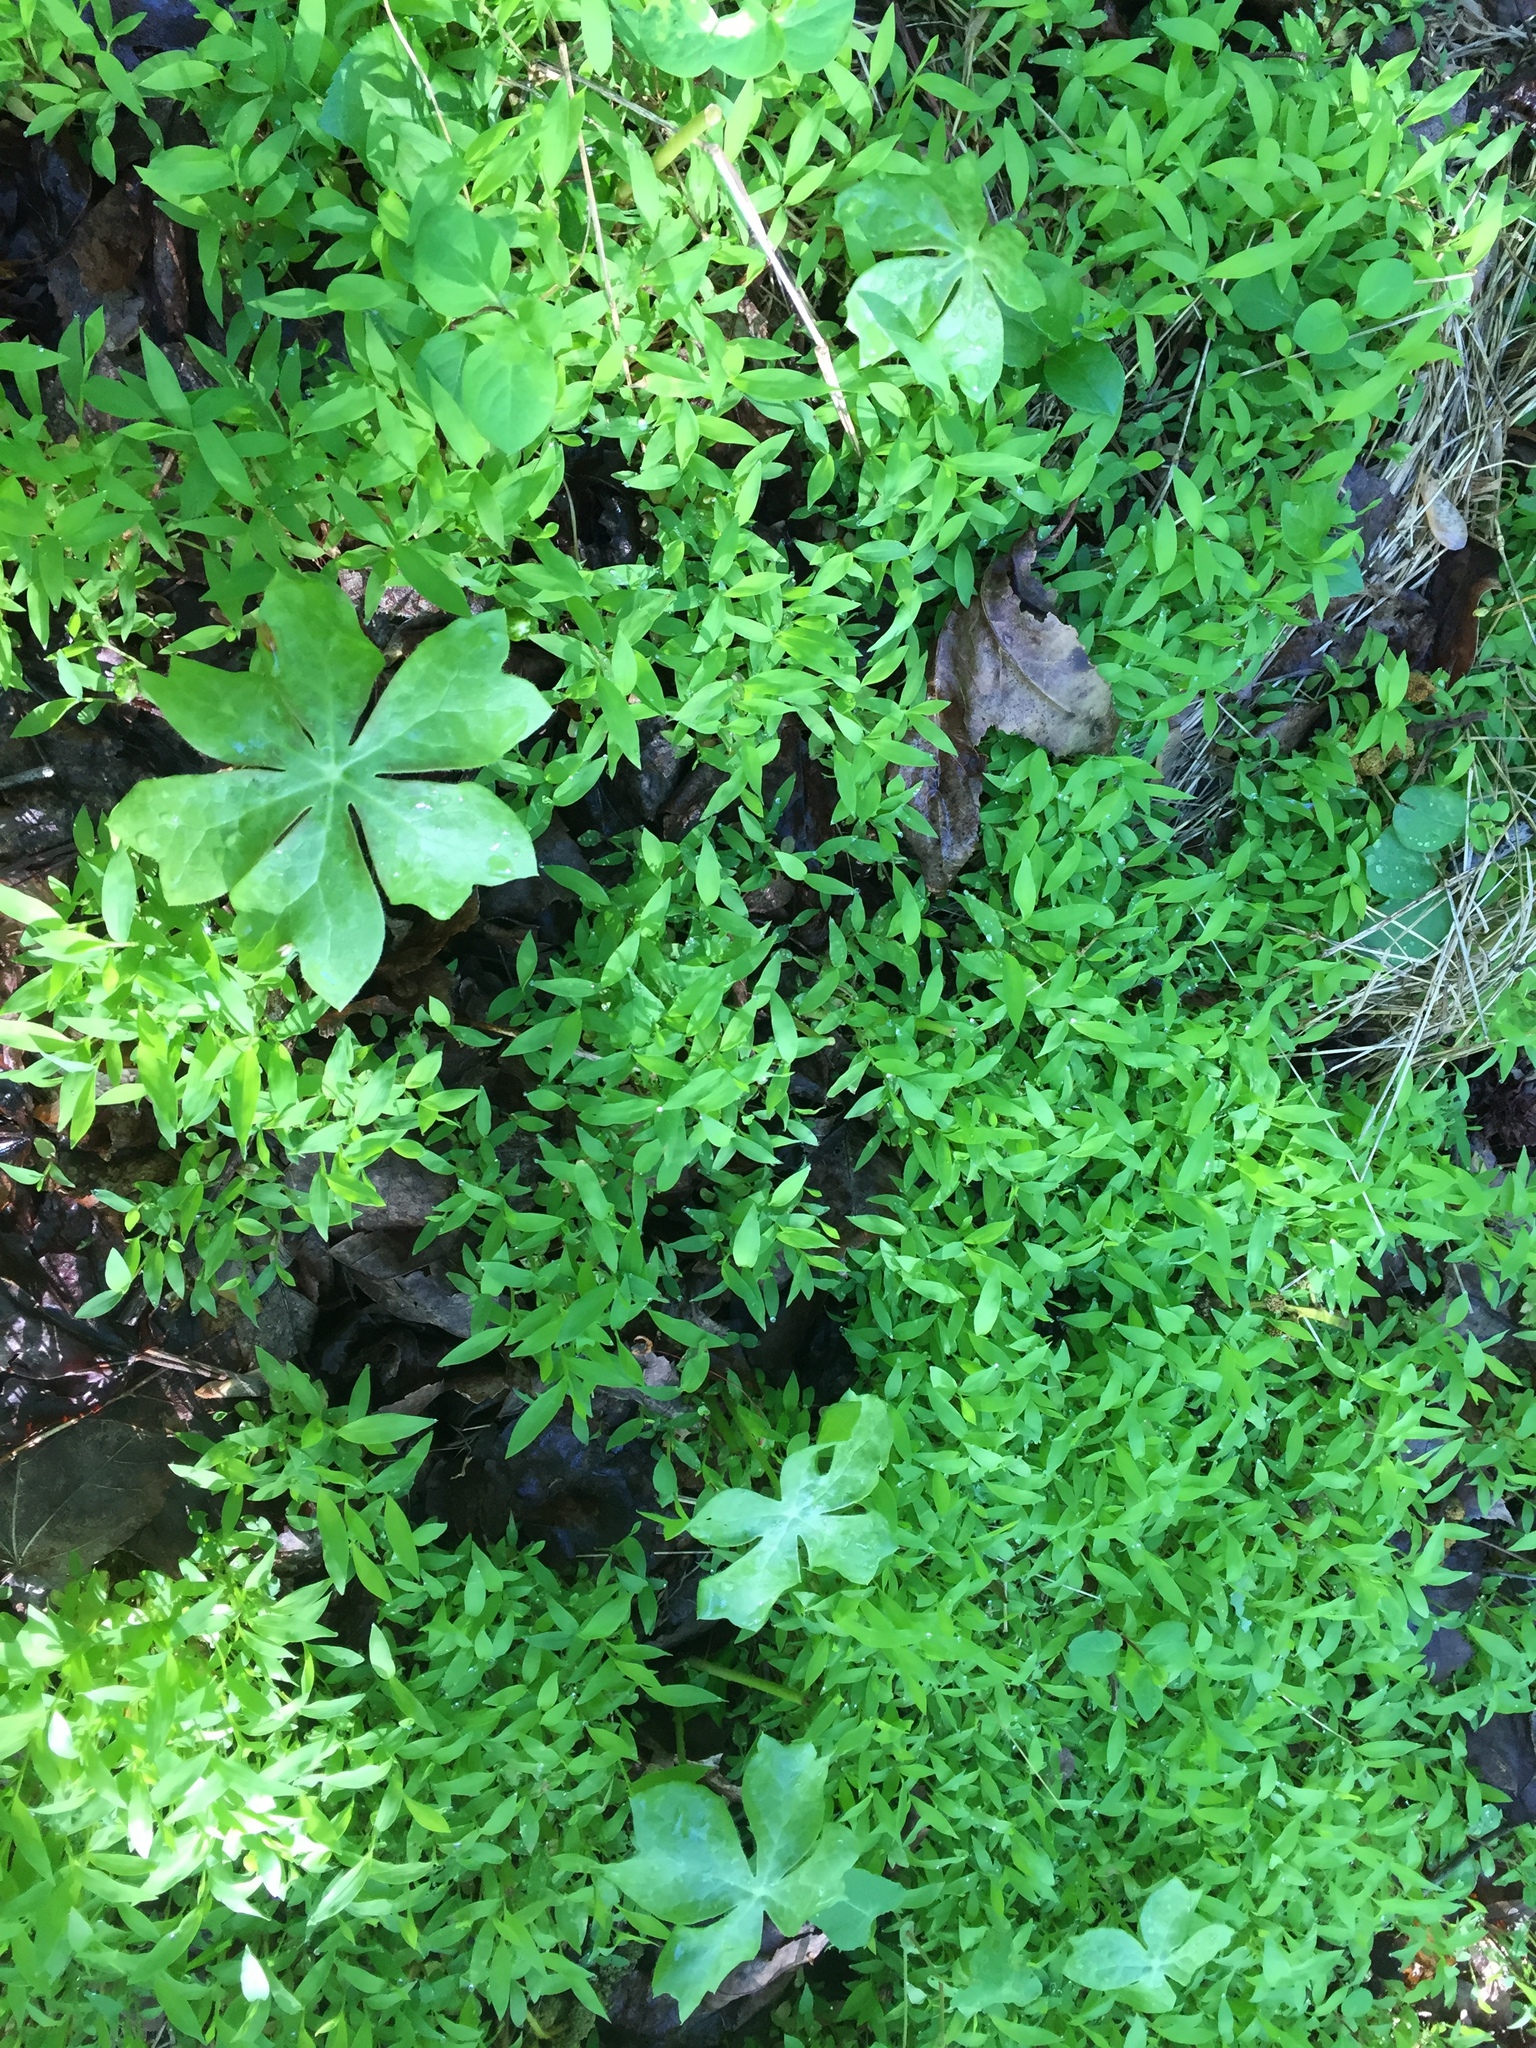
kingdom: Plantae
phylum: Tracheophyta
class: Magnoliopsida
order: Ranunculales
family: Berberidaceae
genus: Podophyllum
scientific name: Podophyllum peltatum
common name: Wild mandrake
